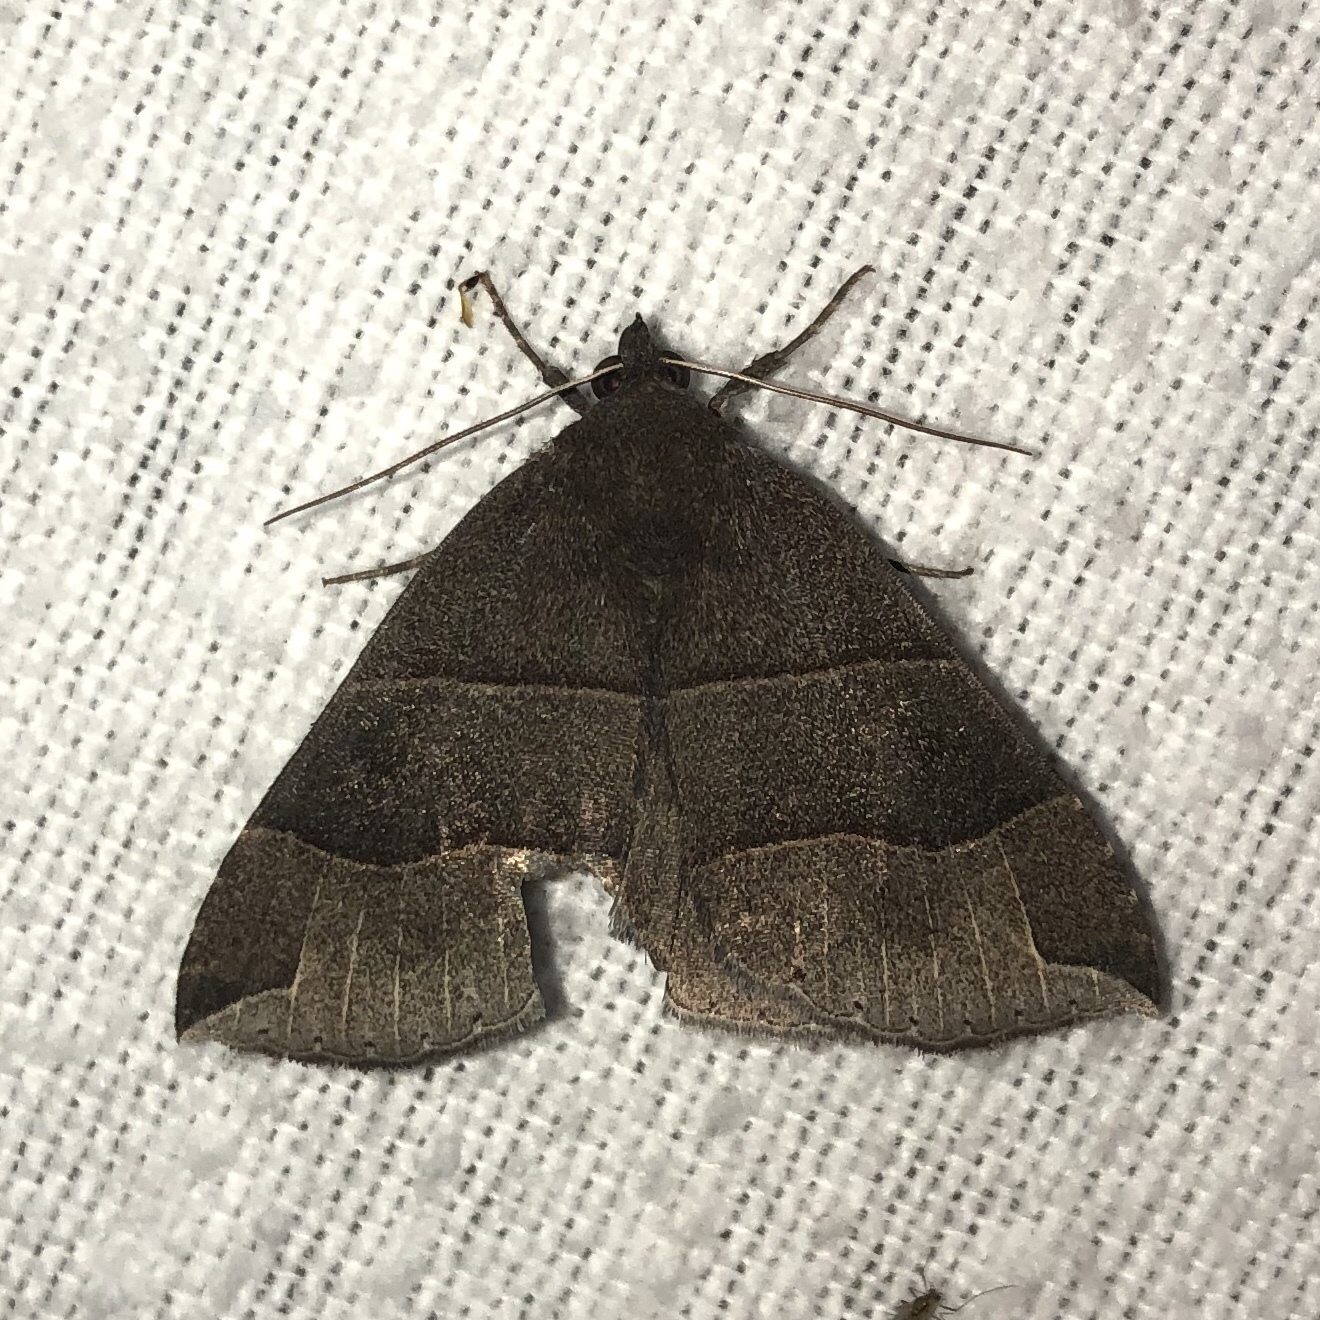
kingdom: Animalia
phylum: Arthropoda
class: Insecta
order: Lepidoptera
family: Erebidae
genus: Parallelia
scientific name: Parallelia bistriaris
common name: Maple looper moth
